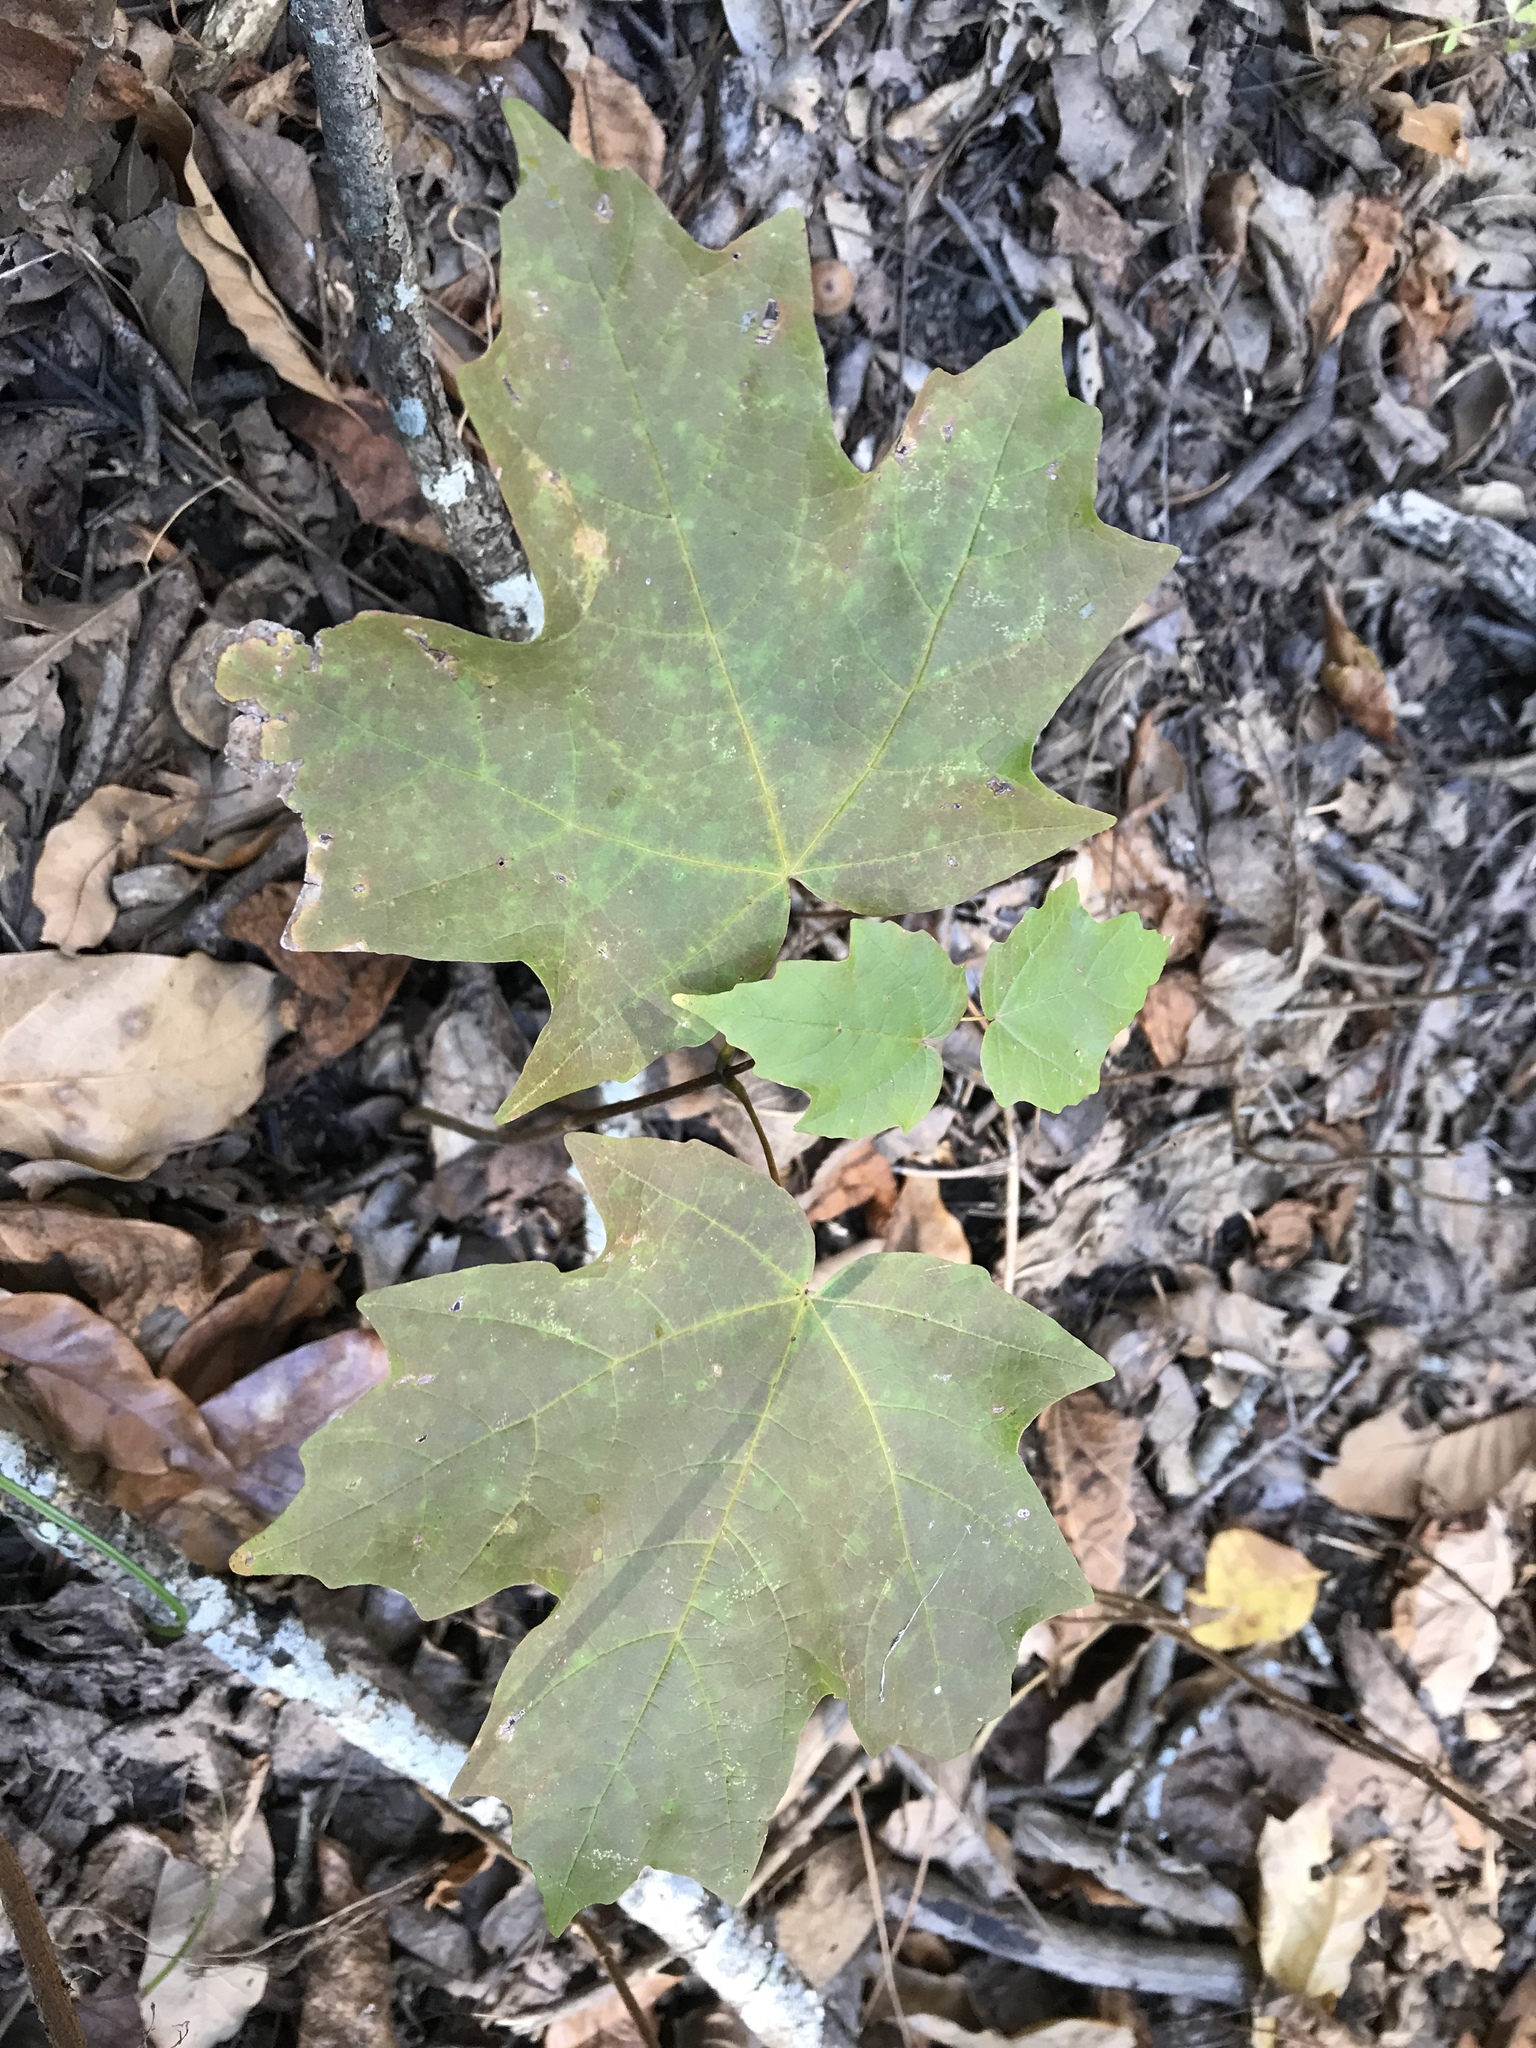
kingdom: Plantae
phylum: Tracheophyta
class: Magnoliopsida
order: Sapindales
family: Sapindaceae
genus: Acer
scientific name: Acer saccharum
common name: Sugar maple
